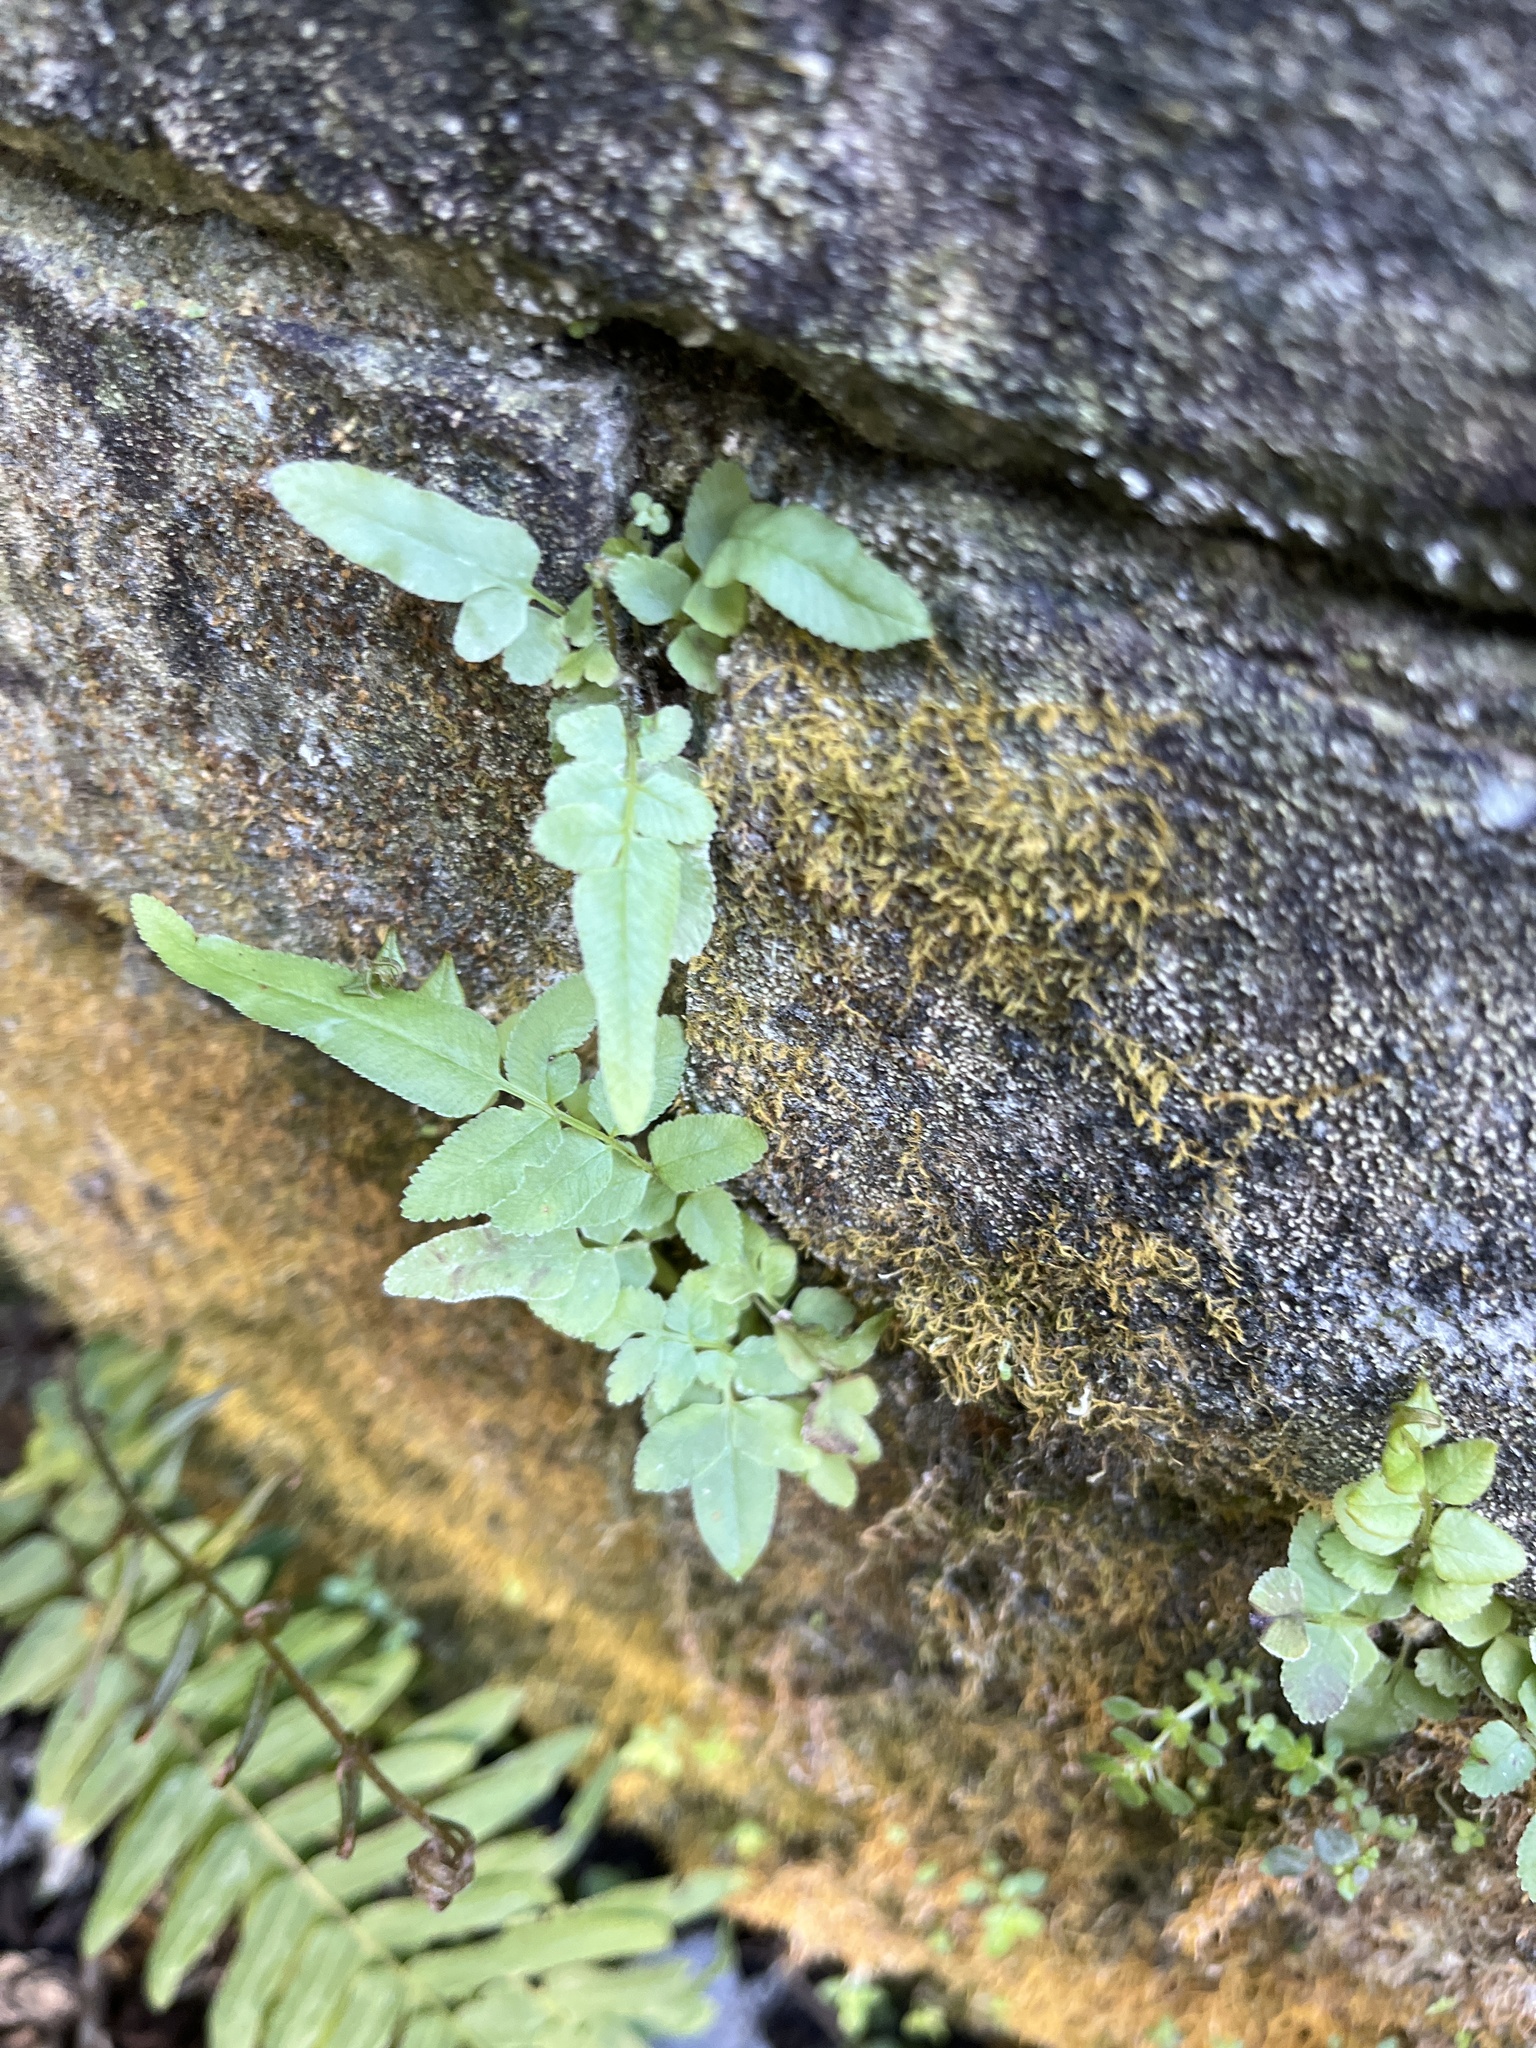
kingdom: Plantae
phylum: Tracheophyta
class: Polypodiopsida
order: Polypodiales
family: Pteridaceae
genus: Pteris
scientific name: Pteris vittata
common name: Ladder brake
